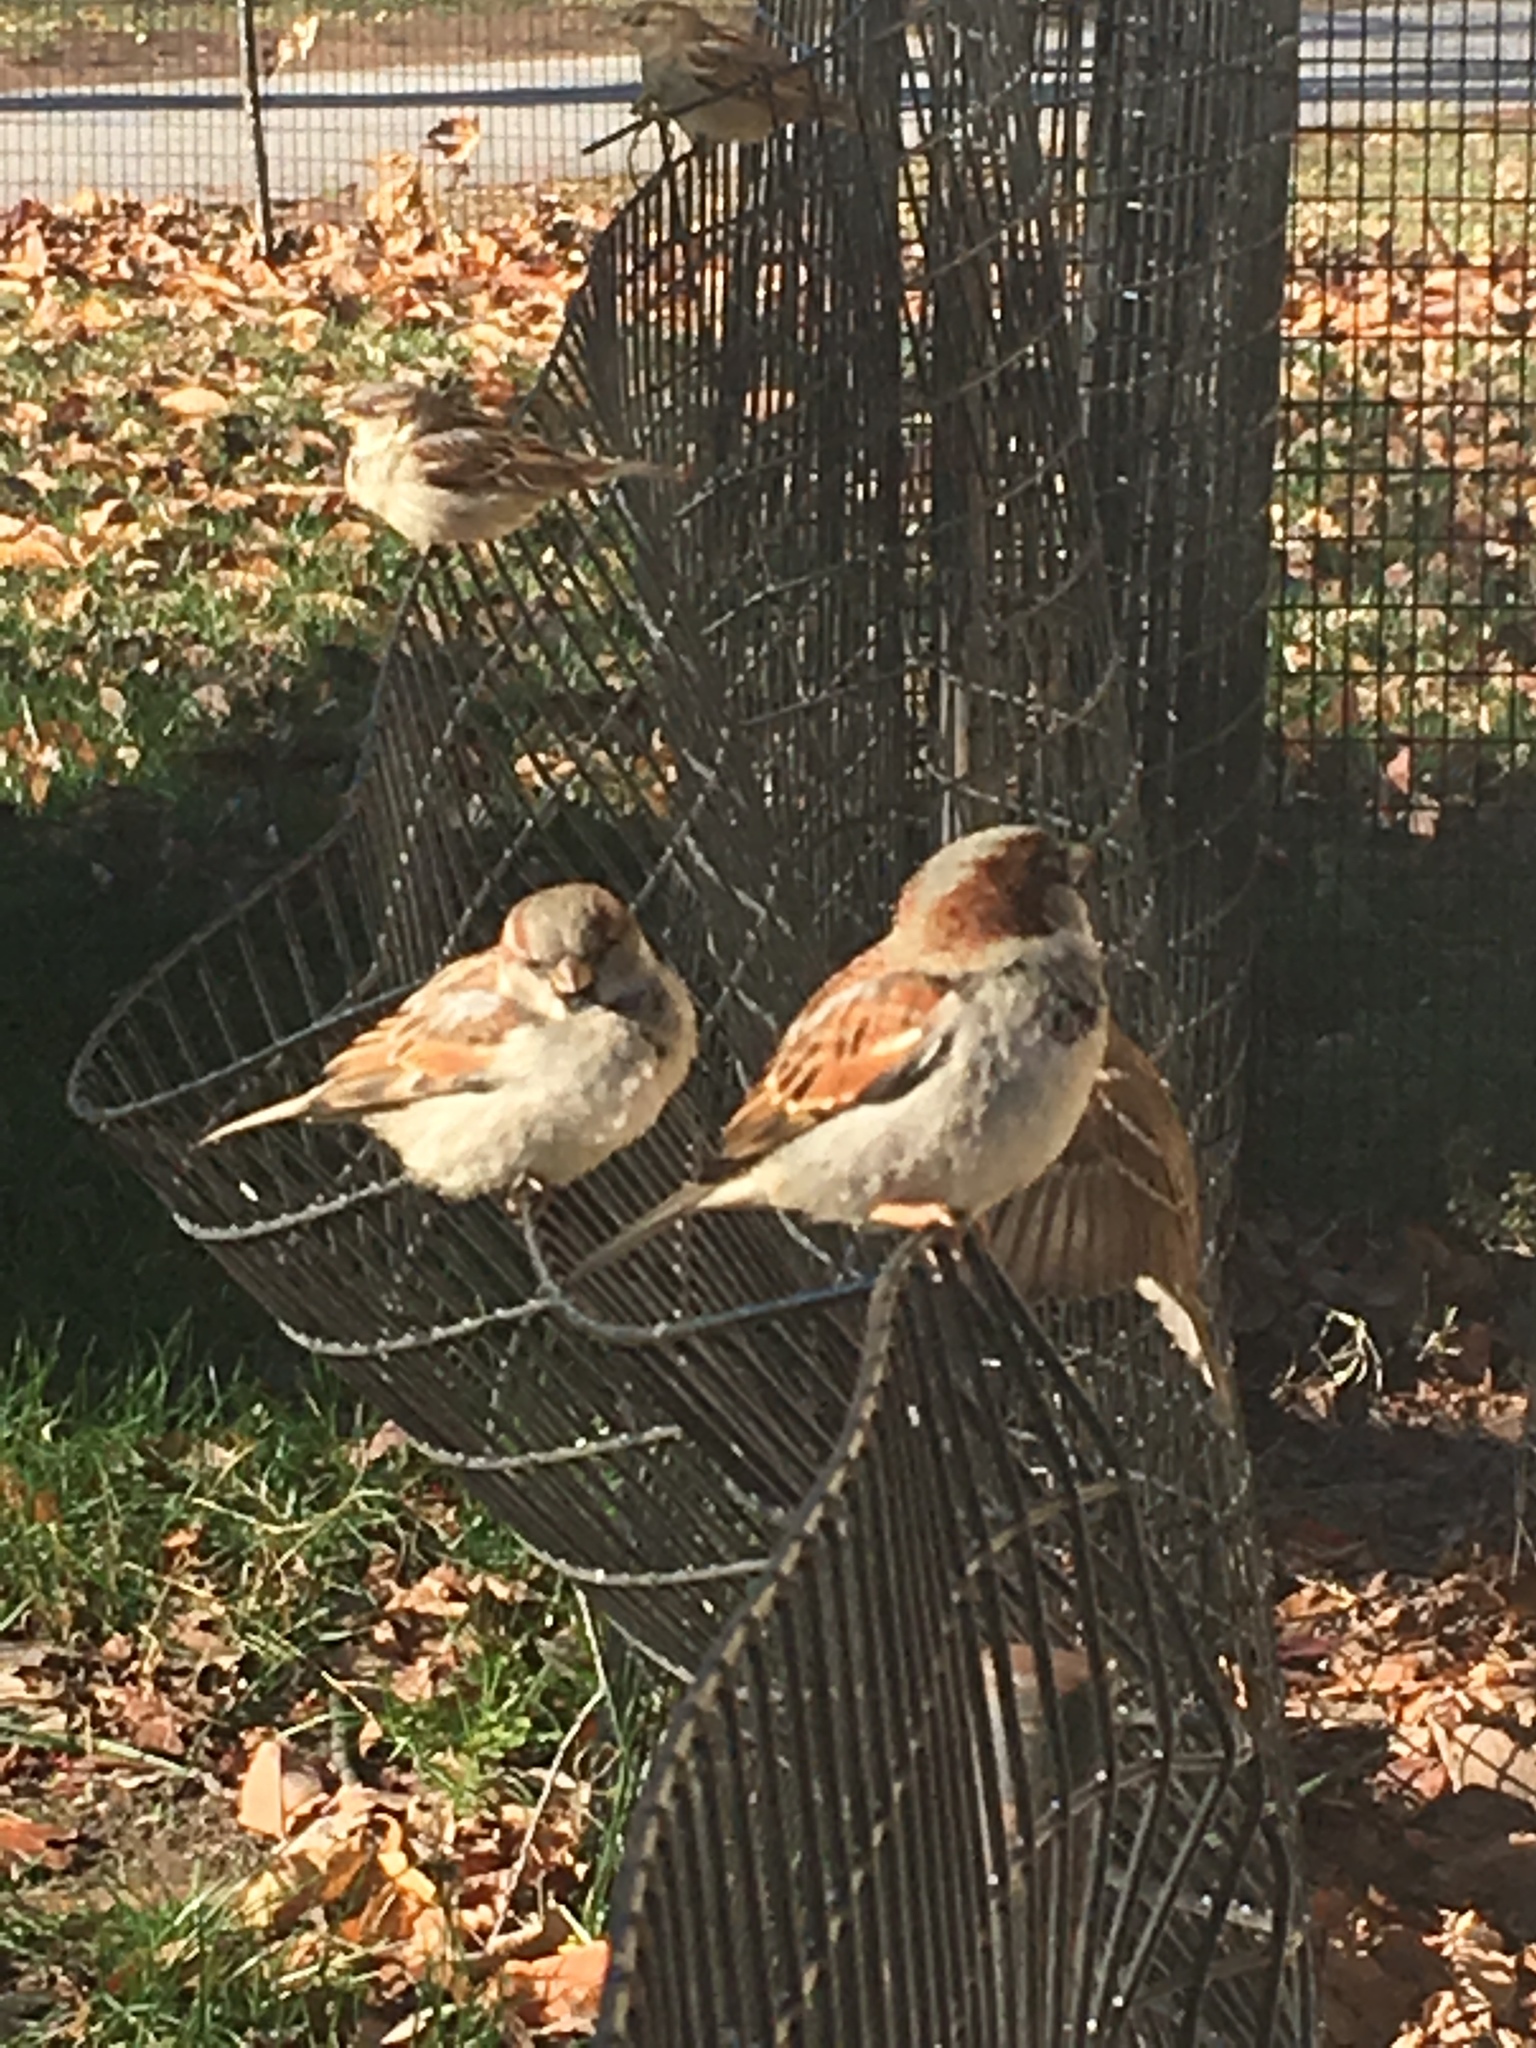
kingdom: Animalia
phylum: Chordata
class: Aves
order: Passeriformes
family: Passeridae
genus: Passer
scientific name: Passer domesticus
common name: House sparrow
